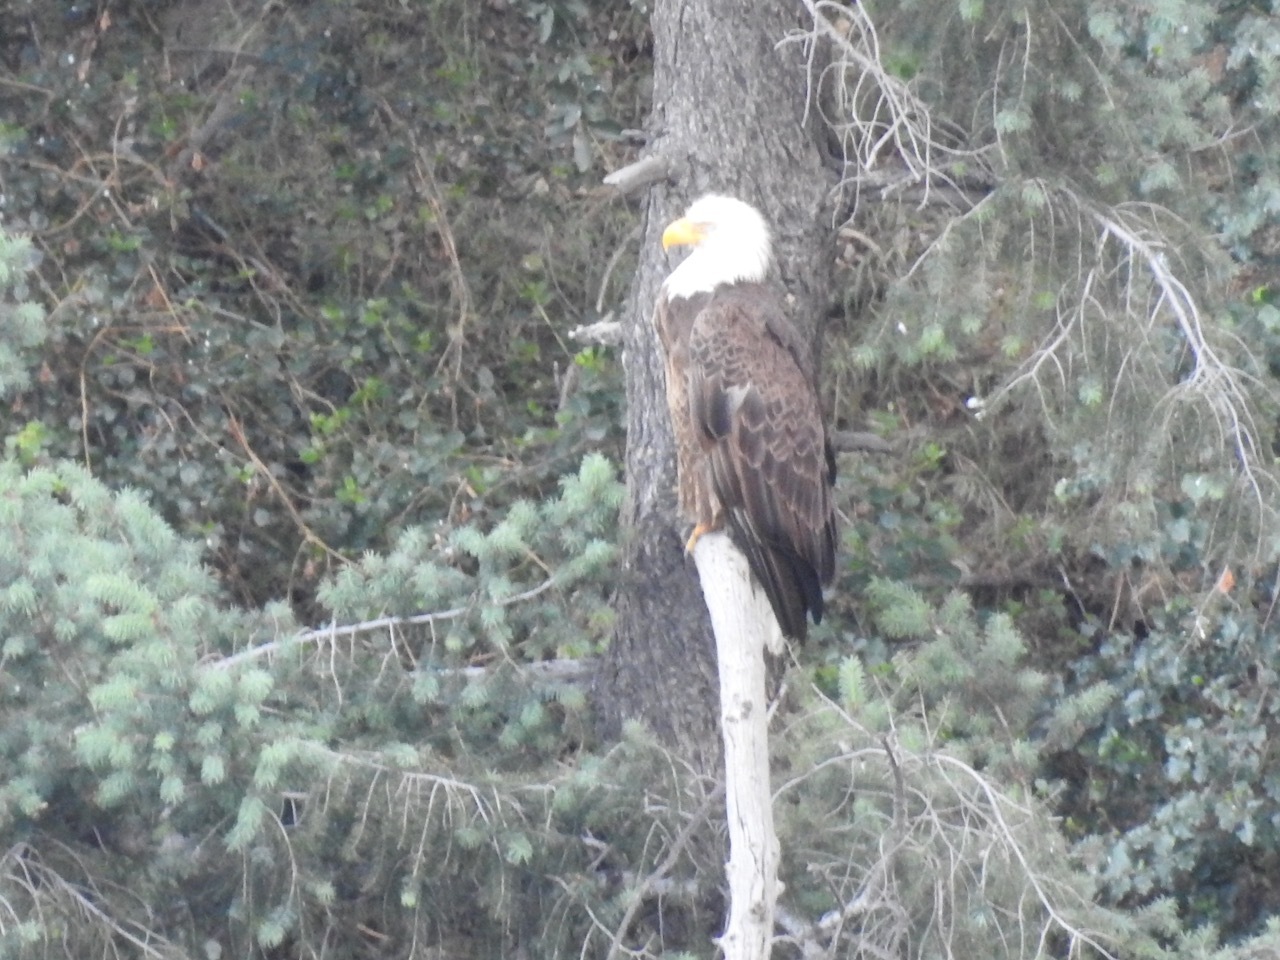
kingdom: Animalia
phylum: Chordata
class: Aves
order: Accipitriformes
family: Accipitridae
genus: Haliaeetus
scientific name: Haliaeetus leucocephalus
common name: Bald eagle
